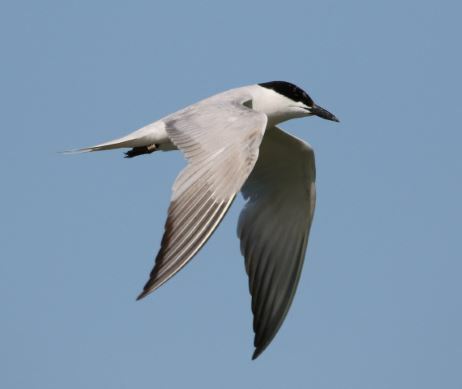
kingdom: Animalia
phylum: Chordata
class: Aves
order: Charadriiformes
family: Laridae
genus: Gelochelidon
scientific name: Gelochelidon nilotica
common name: Gull-billed tern
